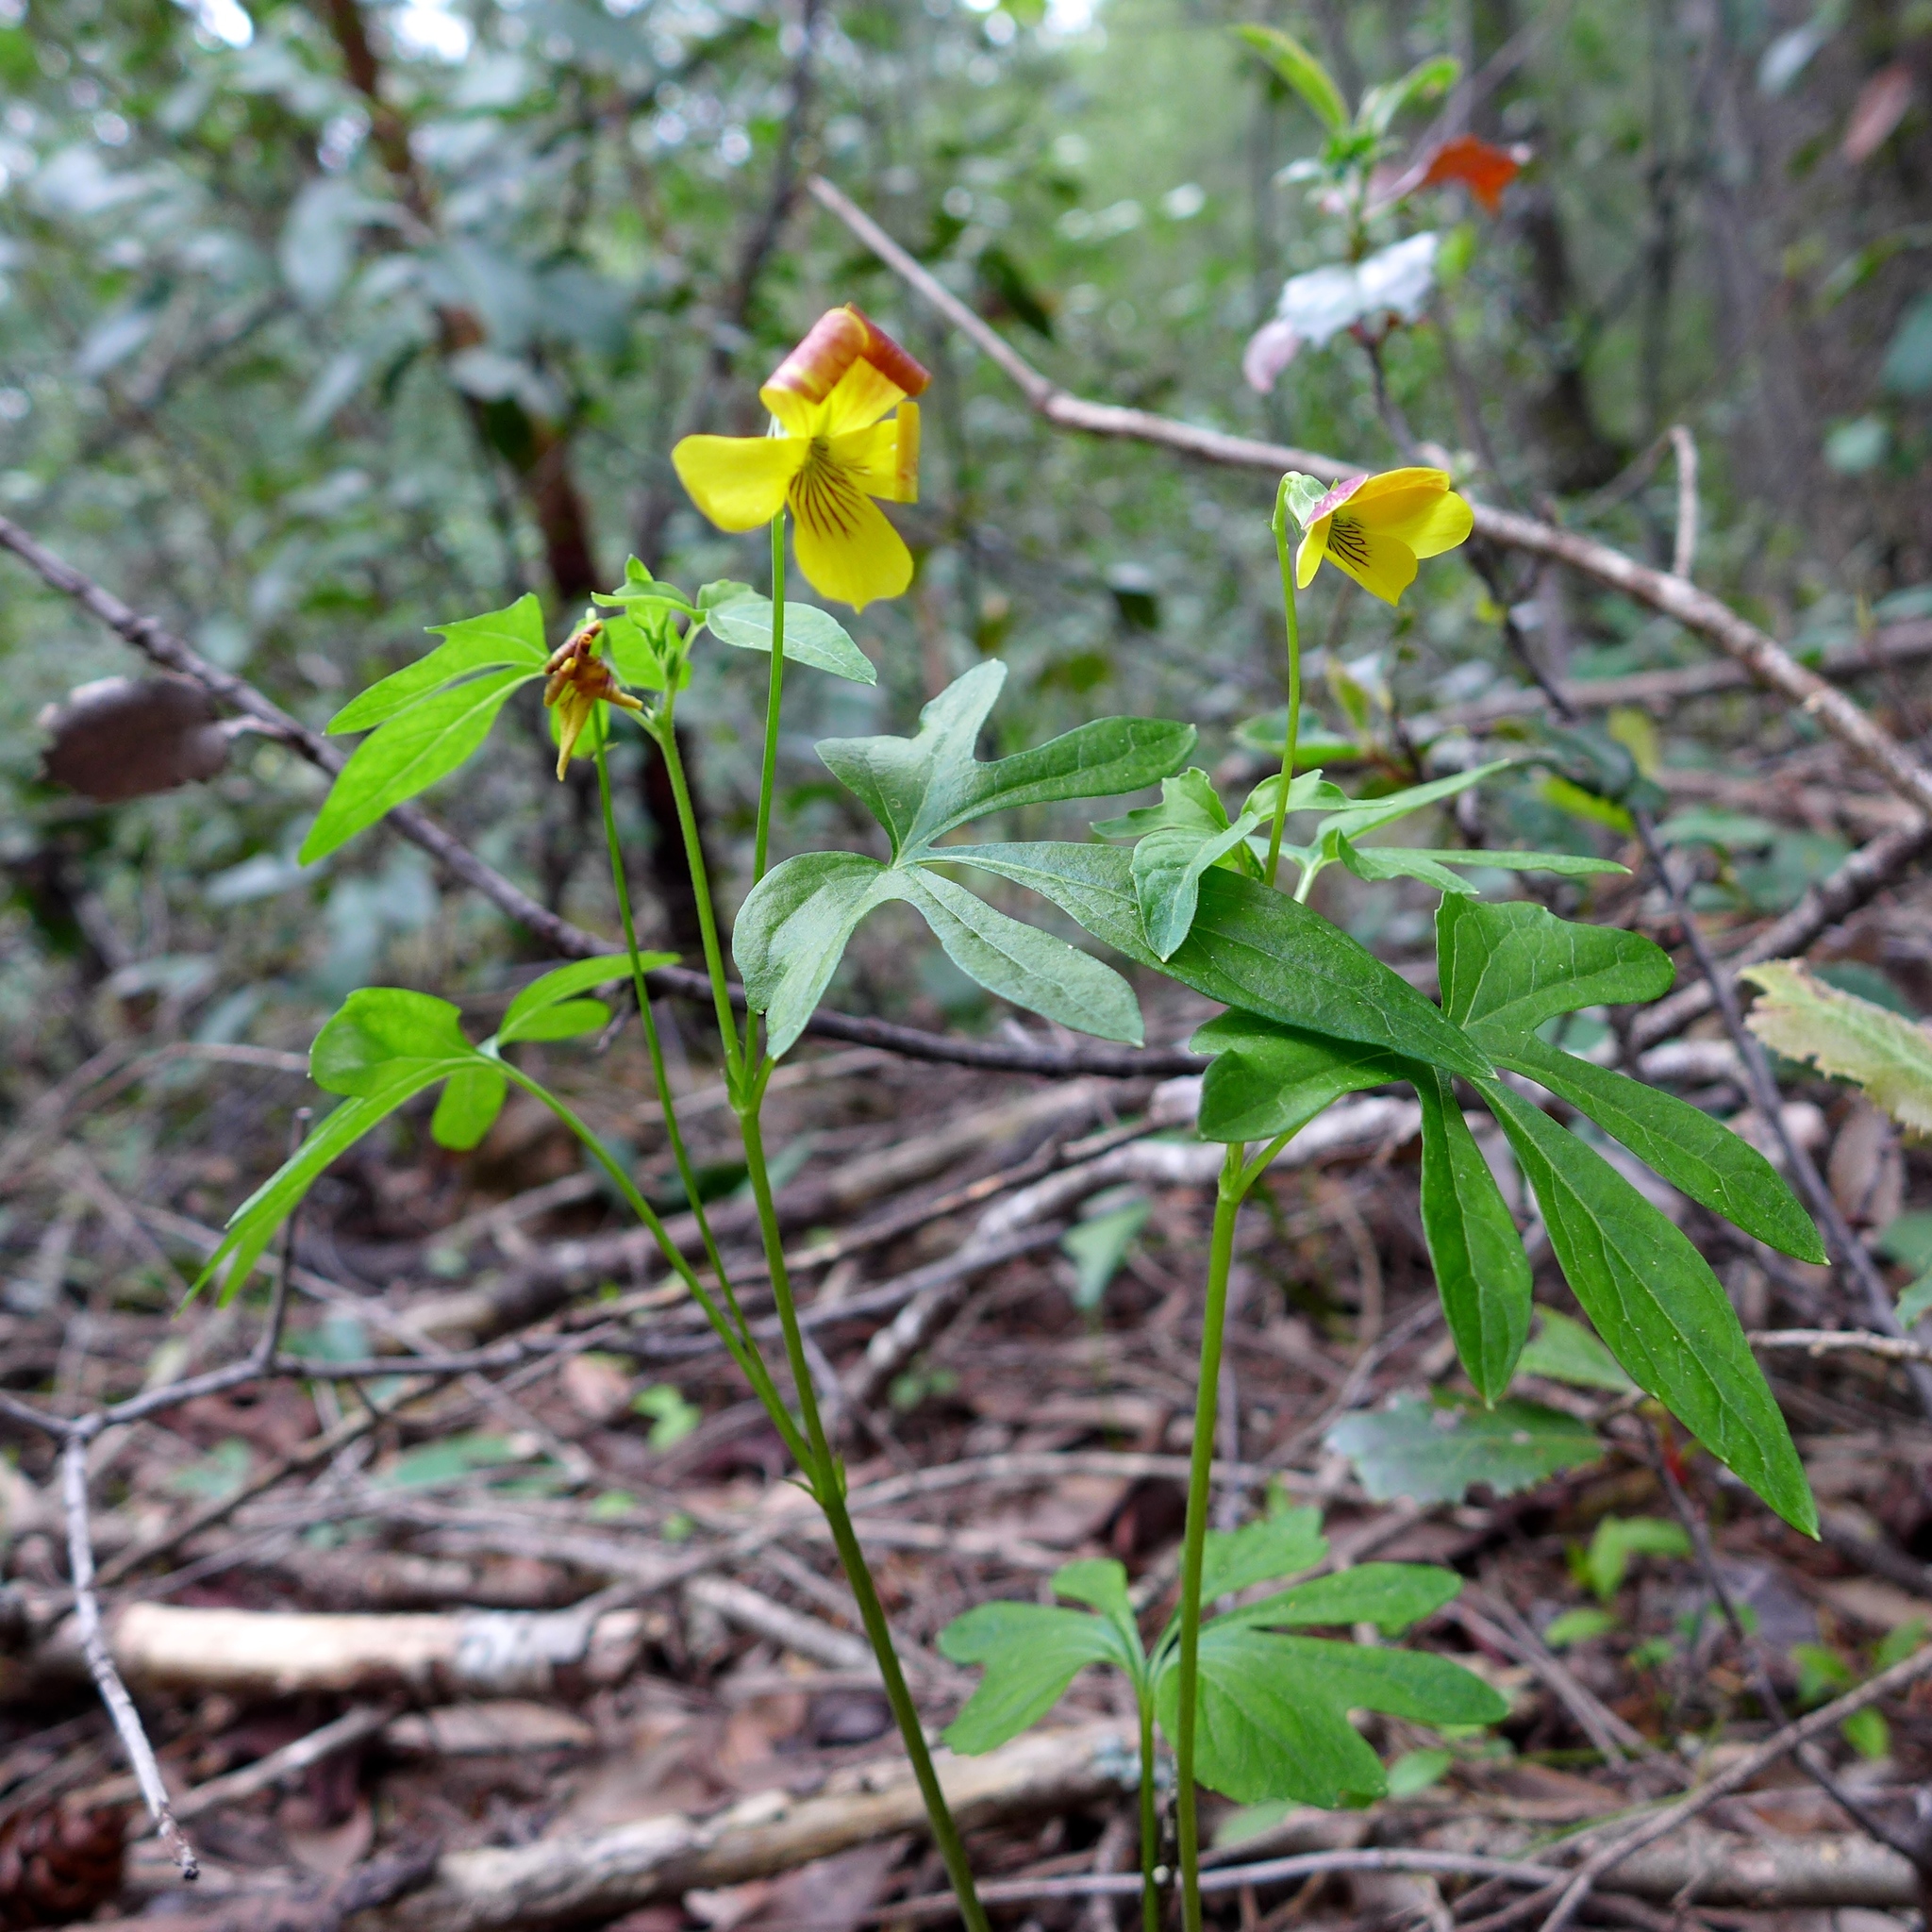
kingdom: Plantae
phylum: Tracheophyta
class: Magnoliopsida
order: Malpighiales
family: Violaceae
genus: Viola
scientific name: Viola lobata
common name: Pine violet
